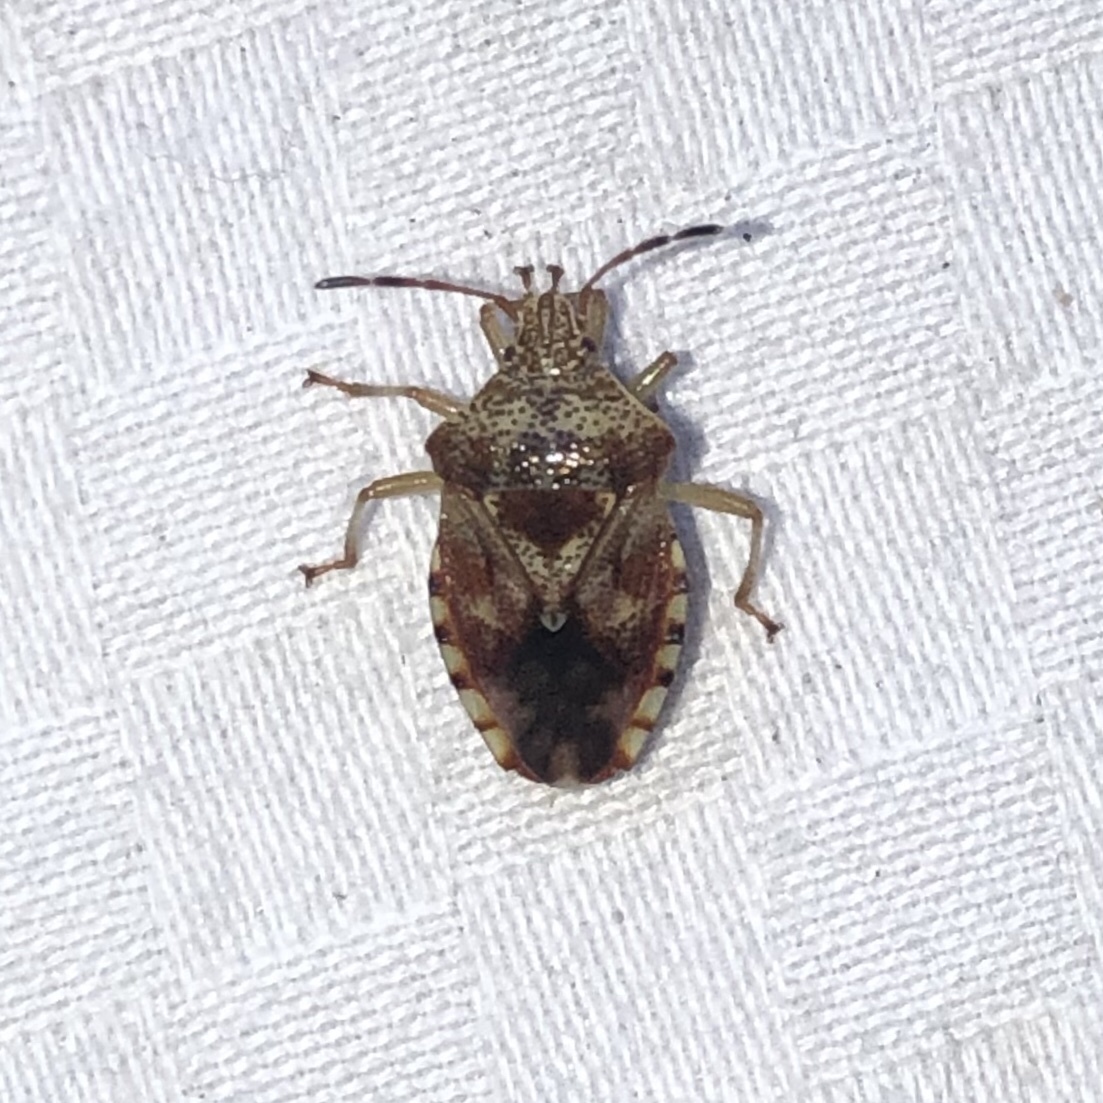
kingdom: Animalia
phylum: Arthropoda
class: Insecta
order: Hemiptera
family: Acanthosomatidae
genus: Elasmucha
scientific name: Elasmucha lateralis
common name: Shield bug
